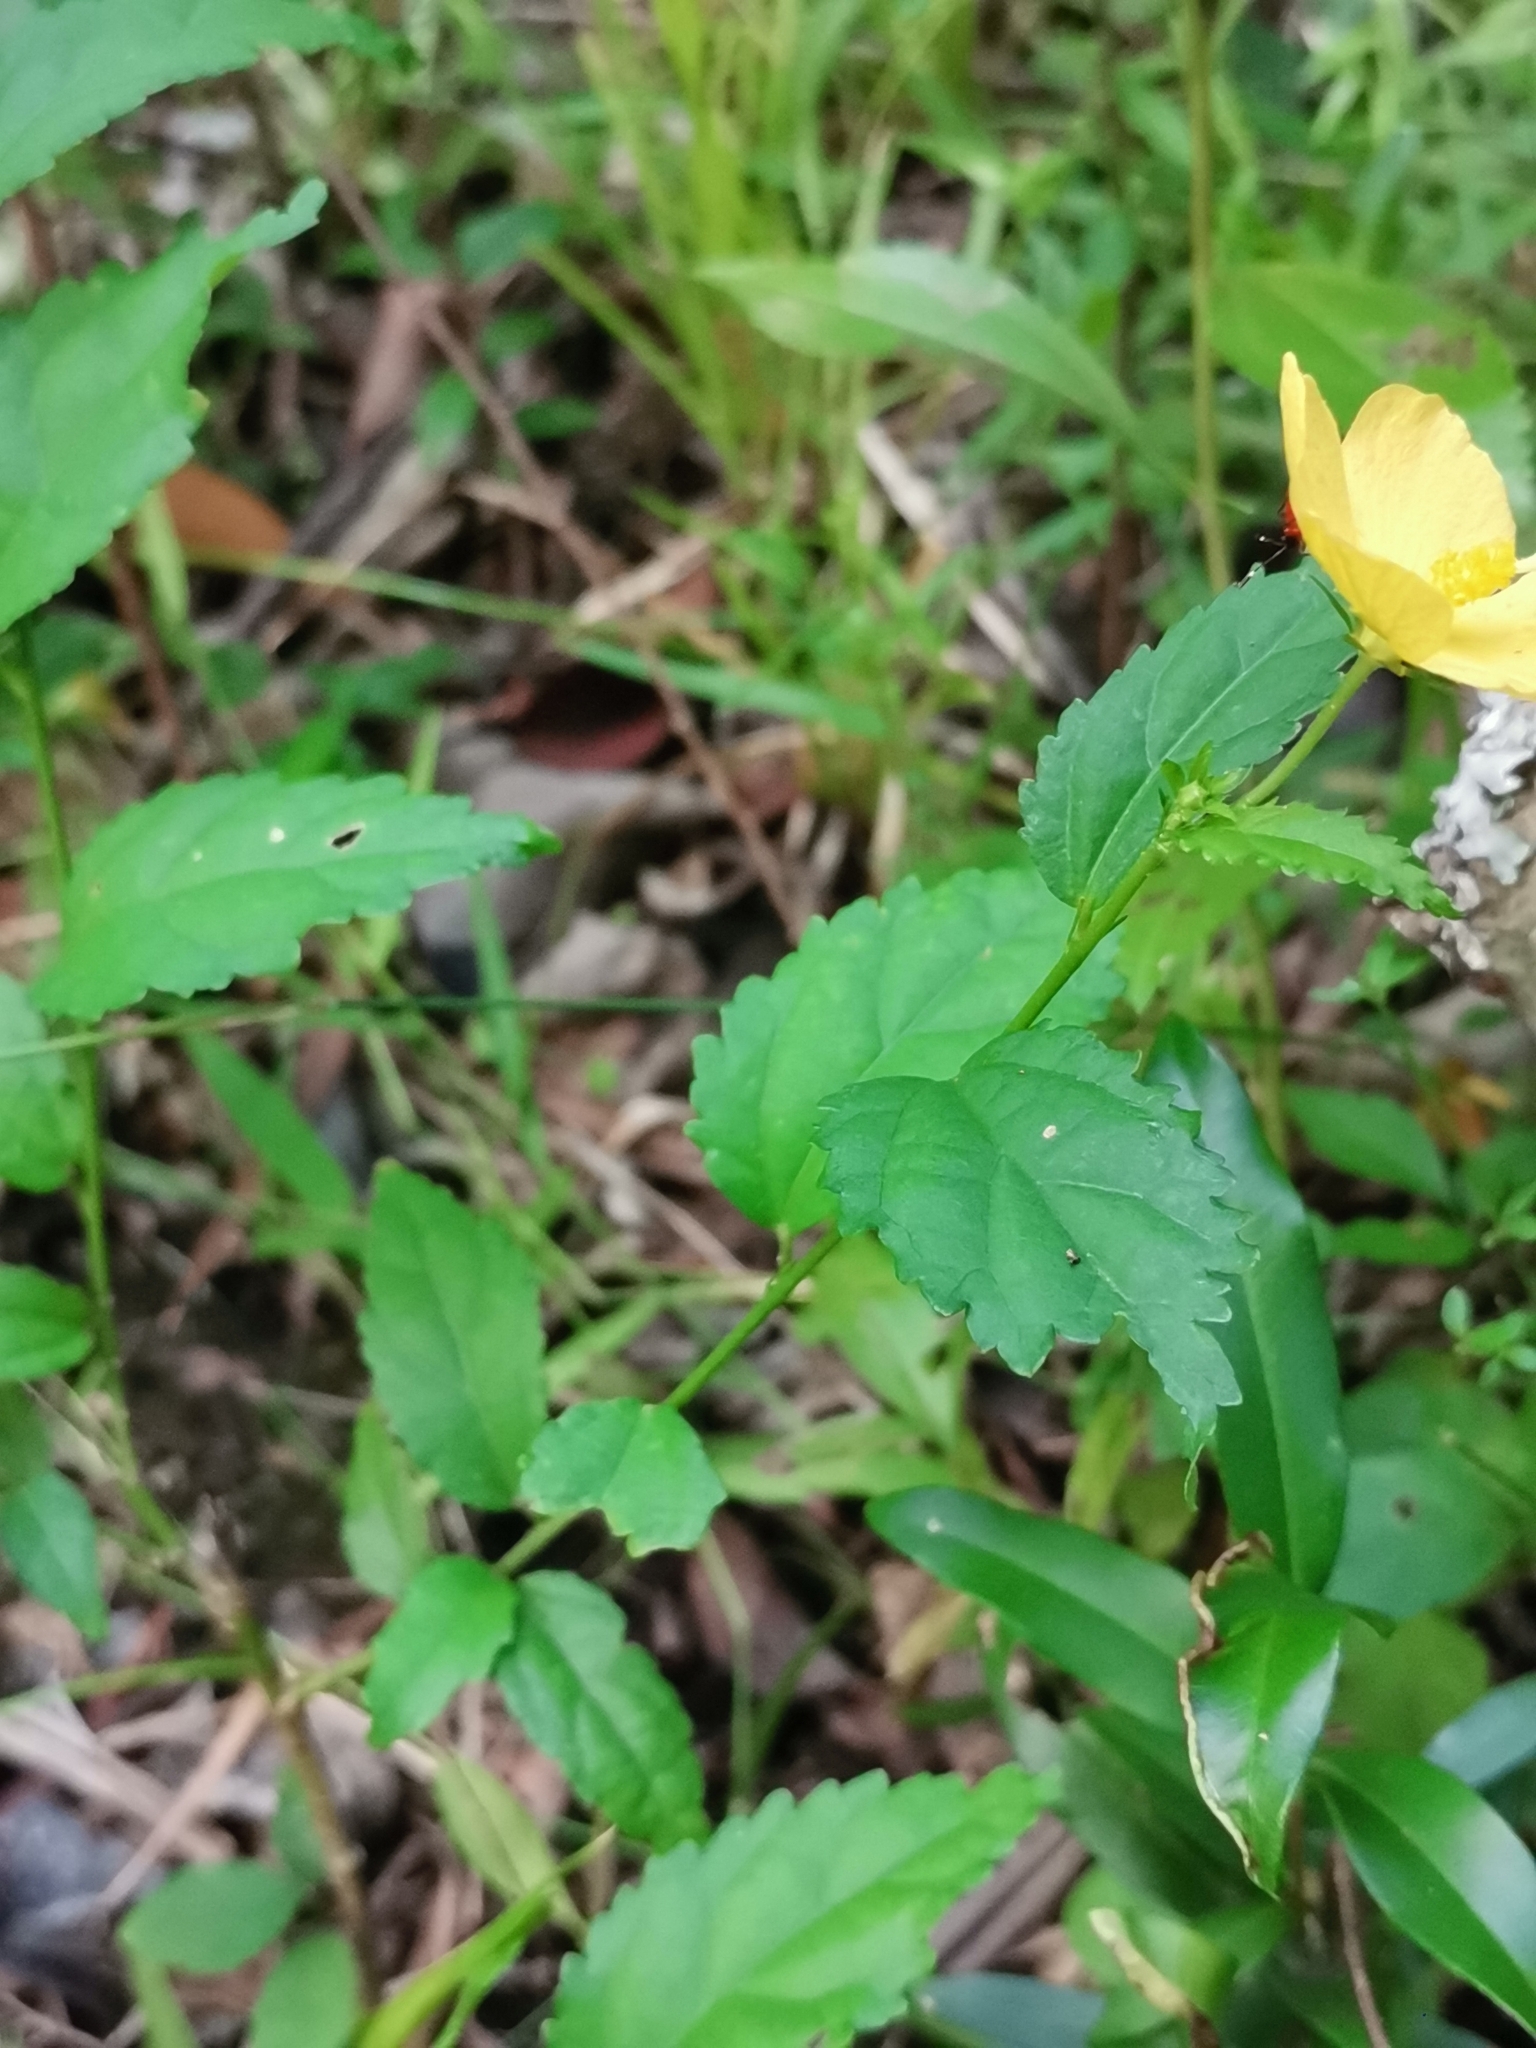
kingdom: Plantae
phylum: Tracheophyta
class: Magnoliopsida
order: Malvales
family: Malvaceae
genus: Pavonia
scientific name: Pavonia sepium
